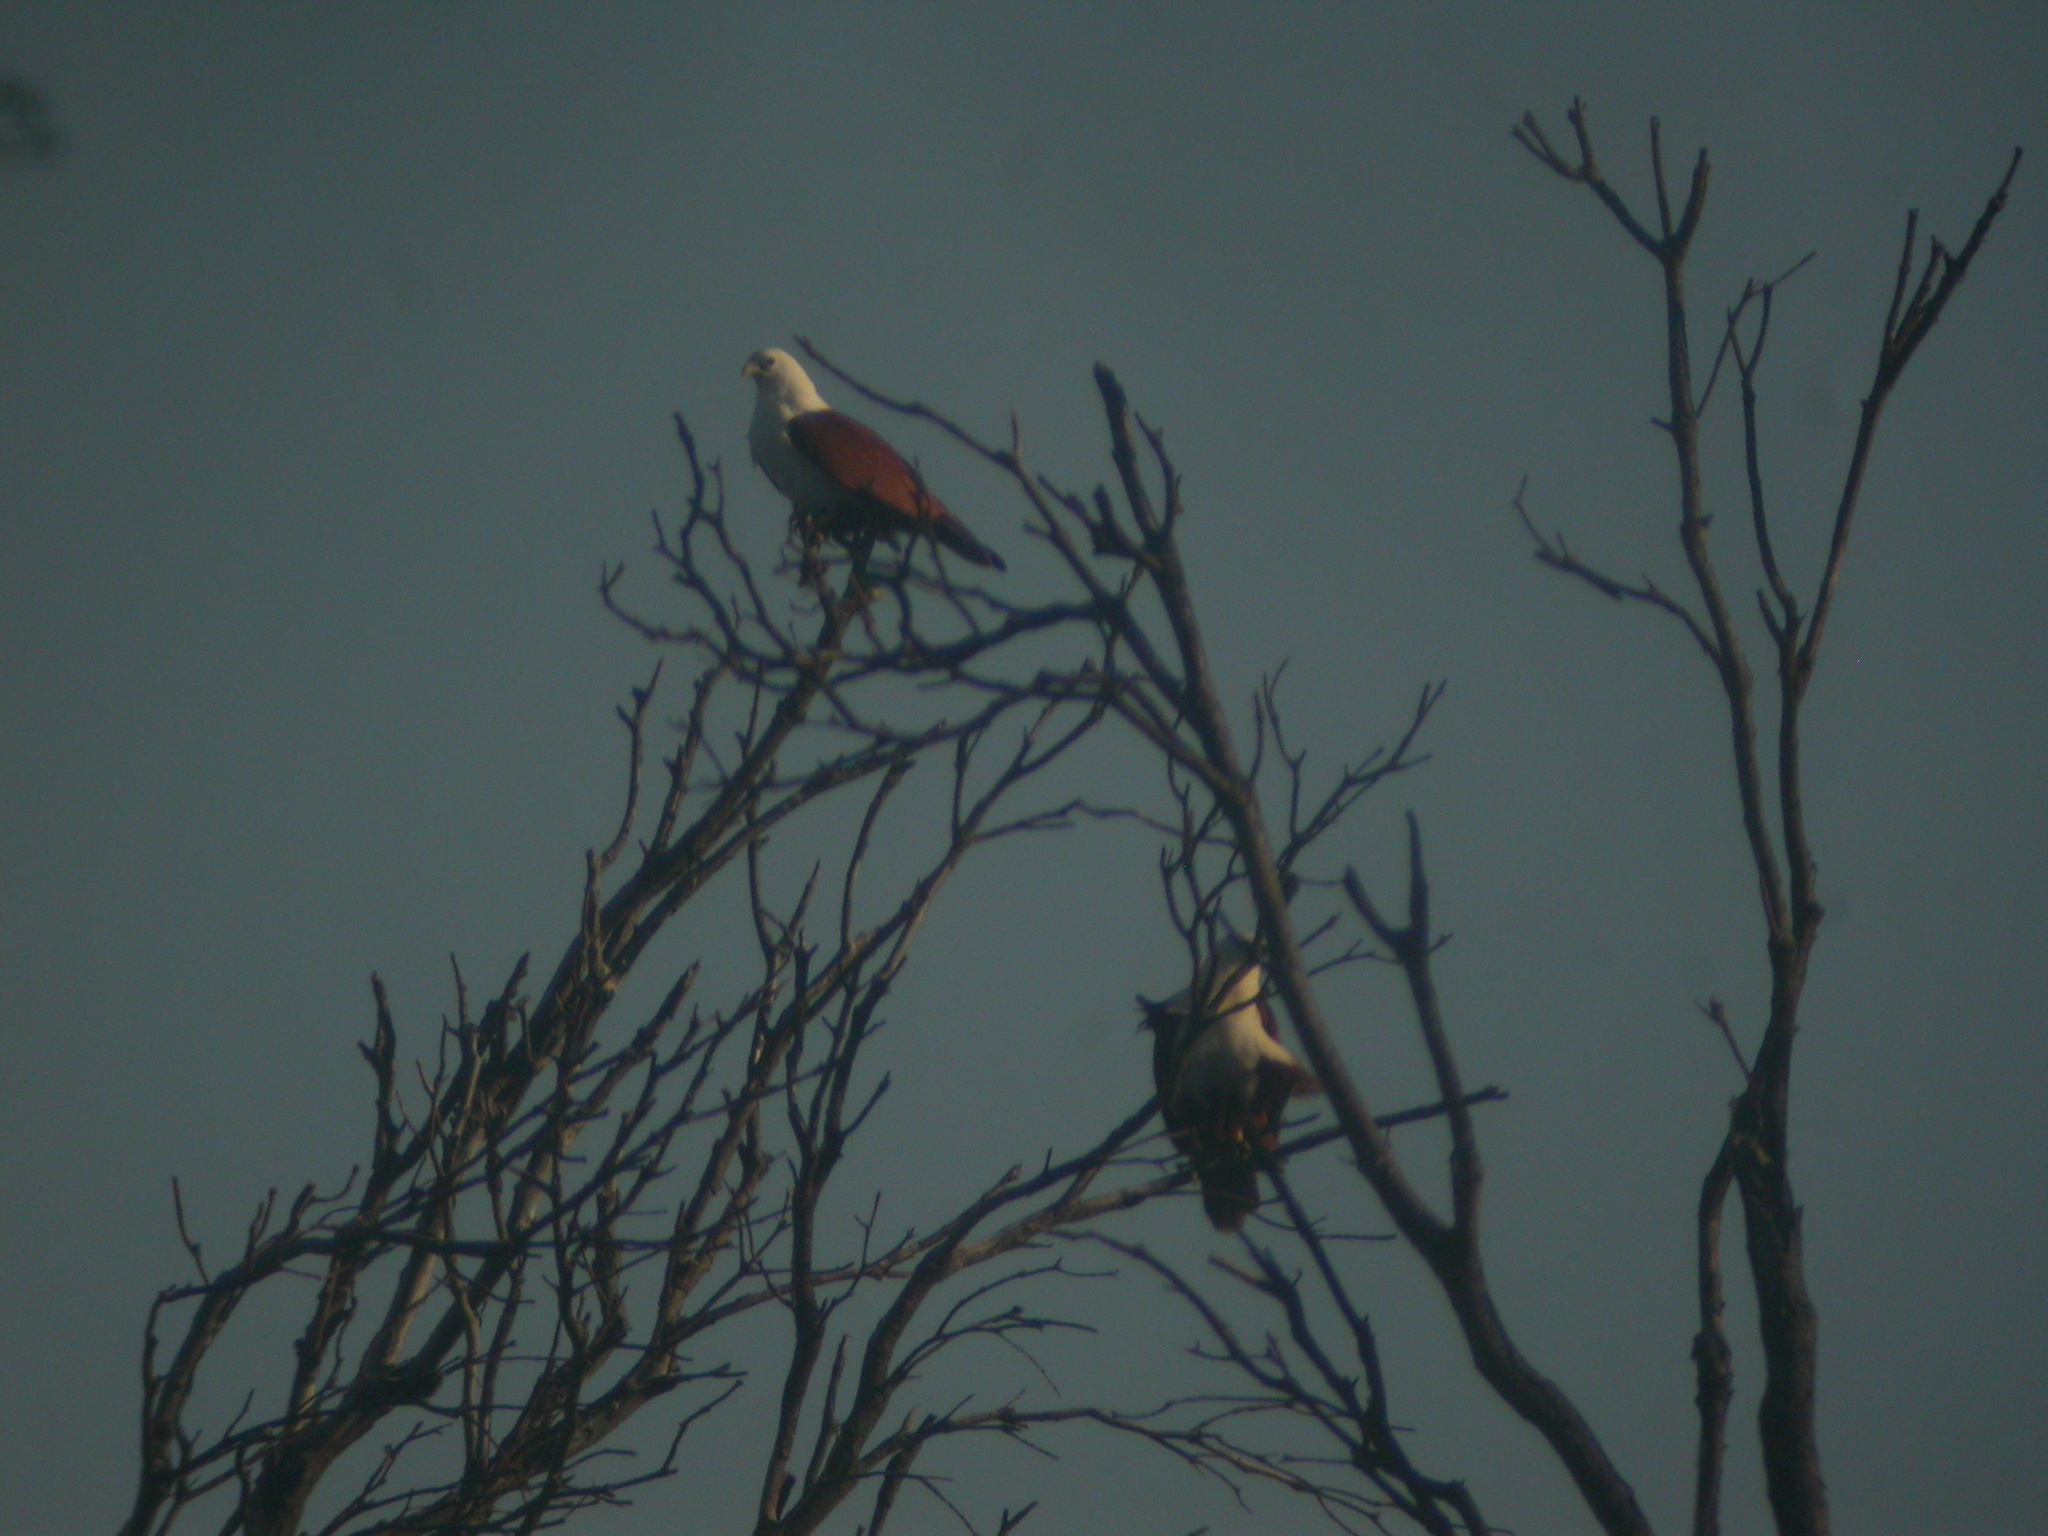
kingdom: Animalia
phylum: Chordata
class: Aves
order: Accipitriformes
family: Accipitridae
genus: Haliastur
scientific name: Haliastur indus
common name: Brahminy kite
